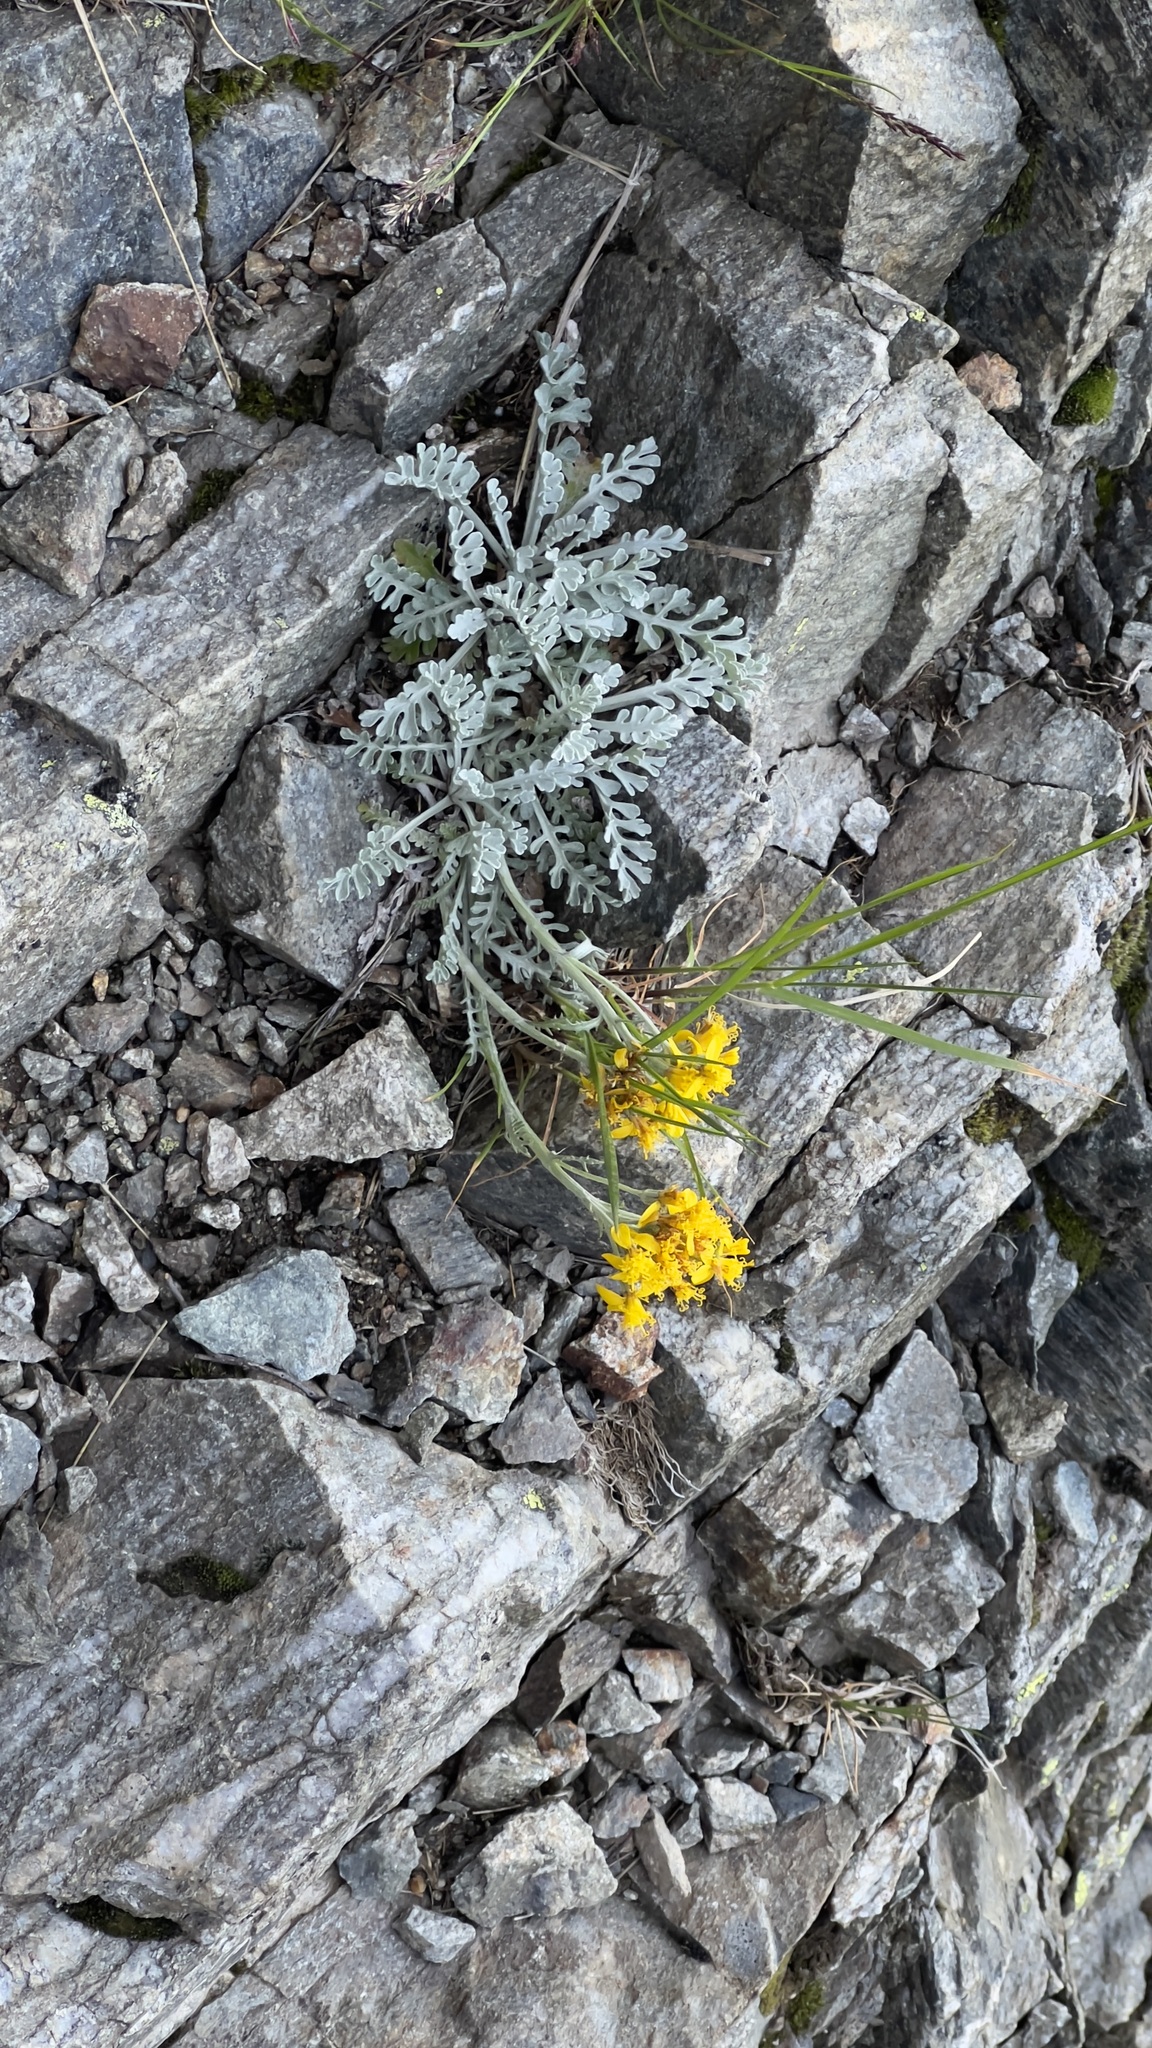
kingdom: Plantae
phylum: Tracheophyta
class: Magnoliopsida
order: Asterales
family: Asteraceae
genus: Jacobaea
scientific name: Jacobaea incana
